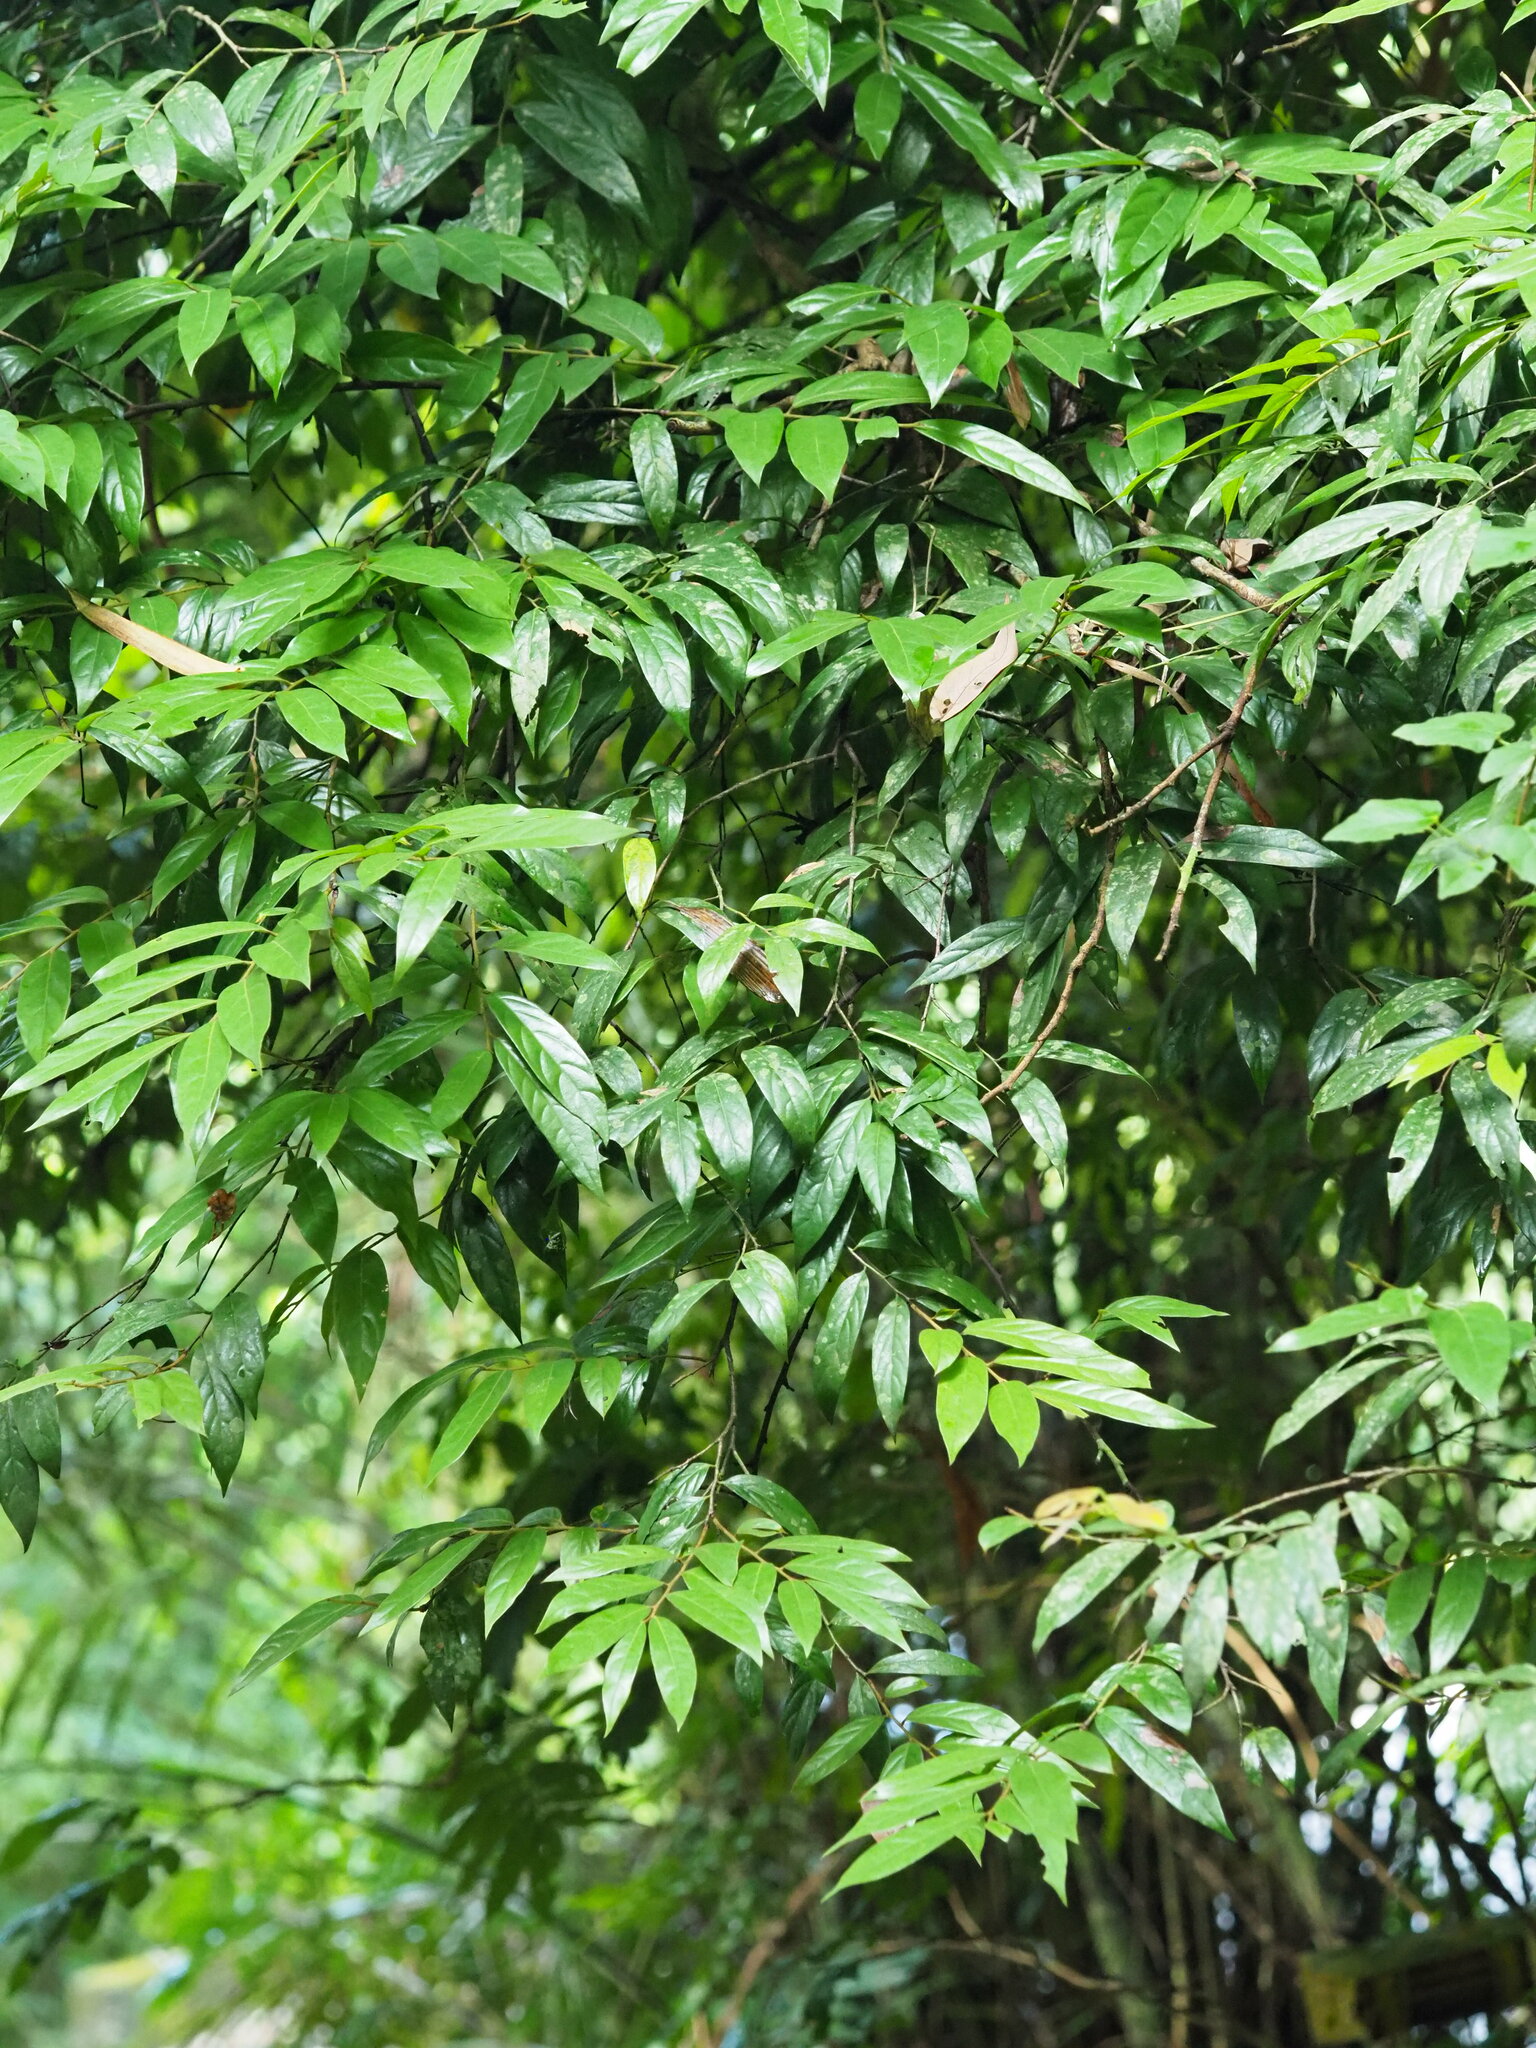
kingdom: Plantae
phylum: Tracheophyta
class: Magnoliopsida
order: Ericales
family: Ebenaceae
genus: Diospyros
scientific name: Diospyros eriantha
